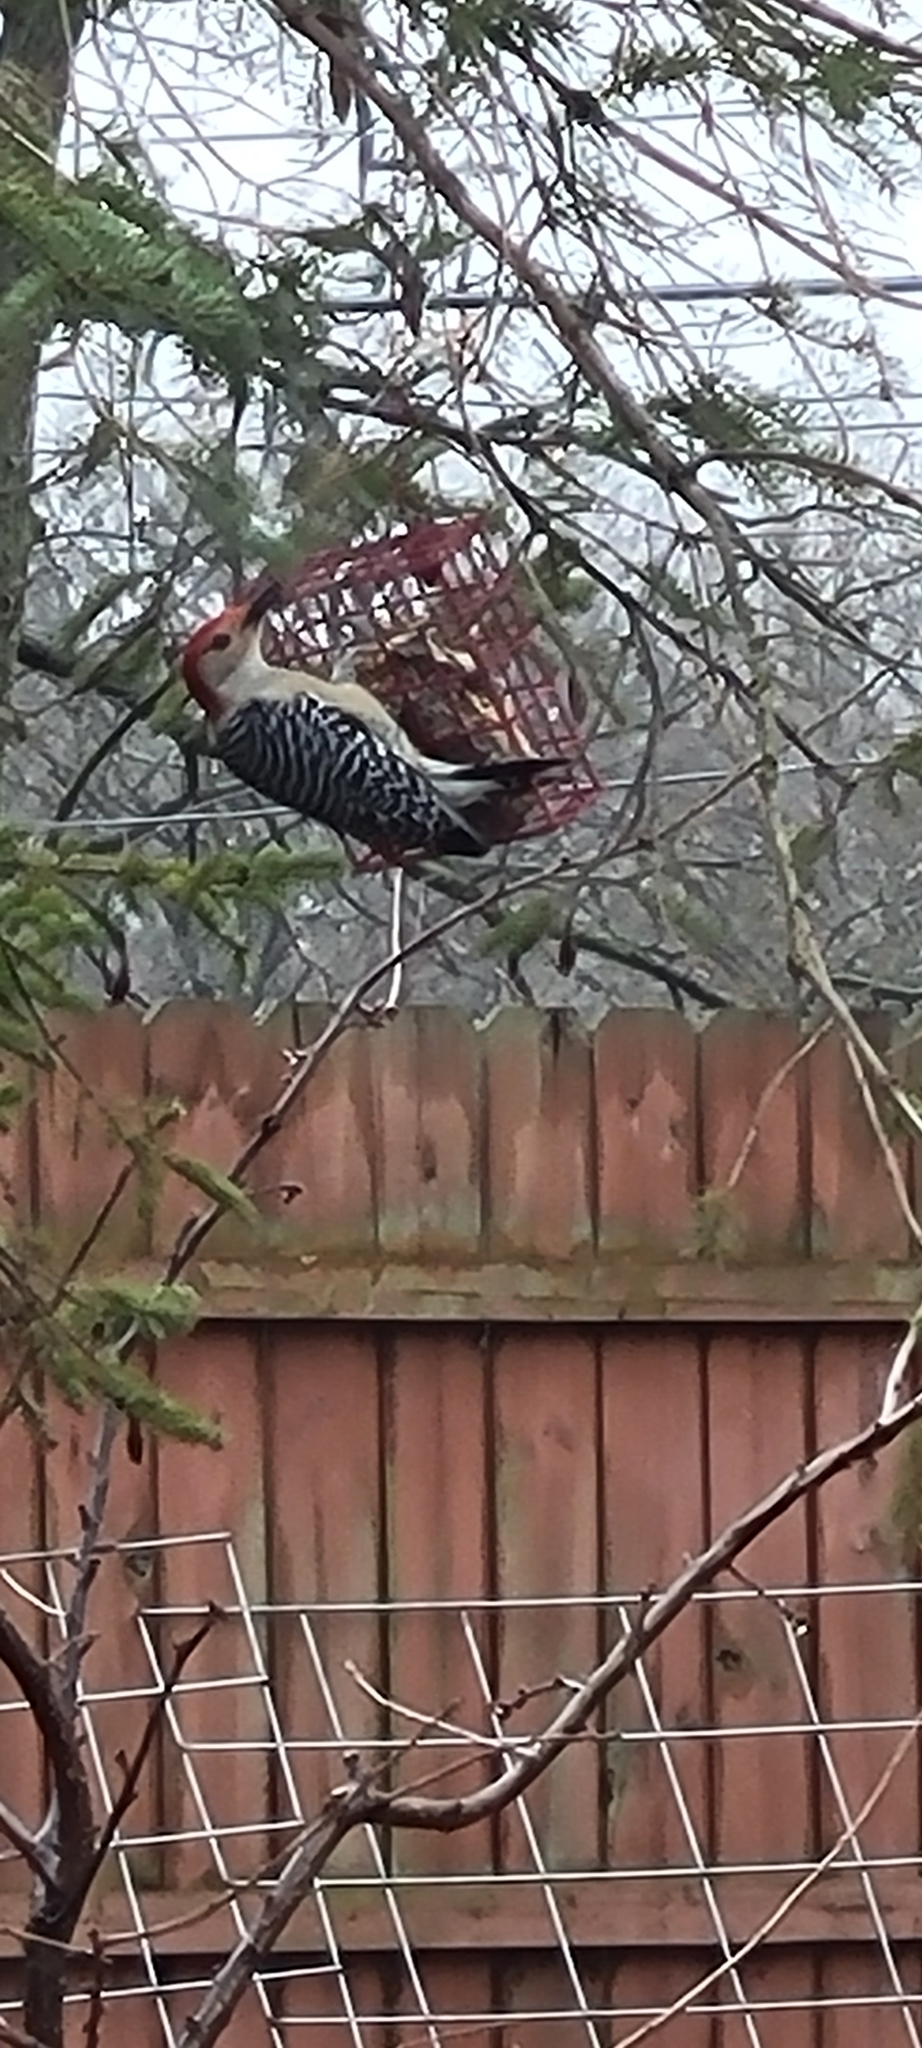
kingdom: Animalia
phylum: Chordata
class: Aves
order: Piciformes
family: Picidae
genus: Melanerpes
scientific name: Melanerpes carolinus
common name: Red-bellied woodpecker
